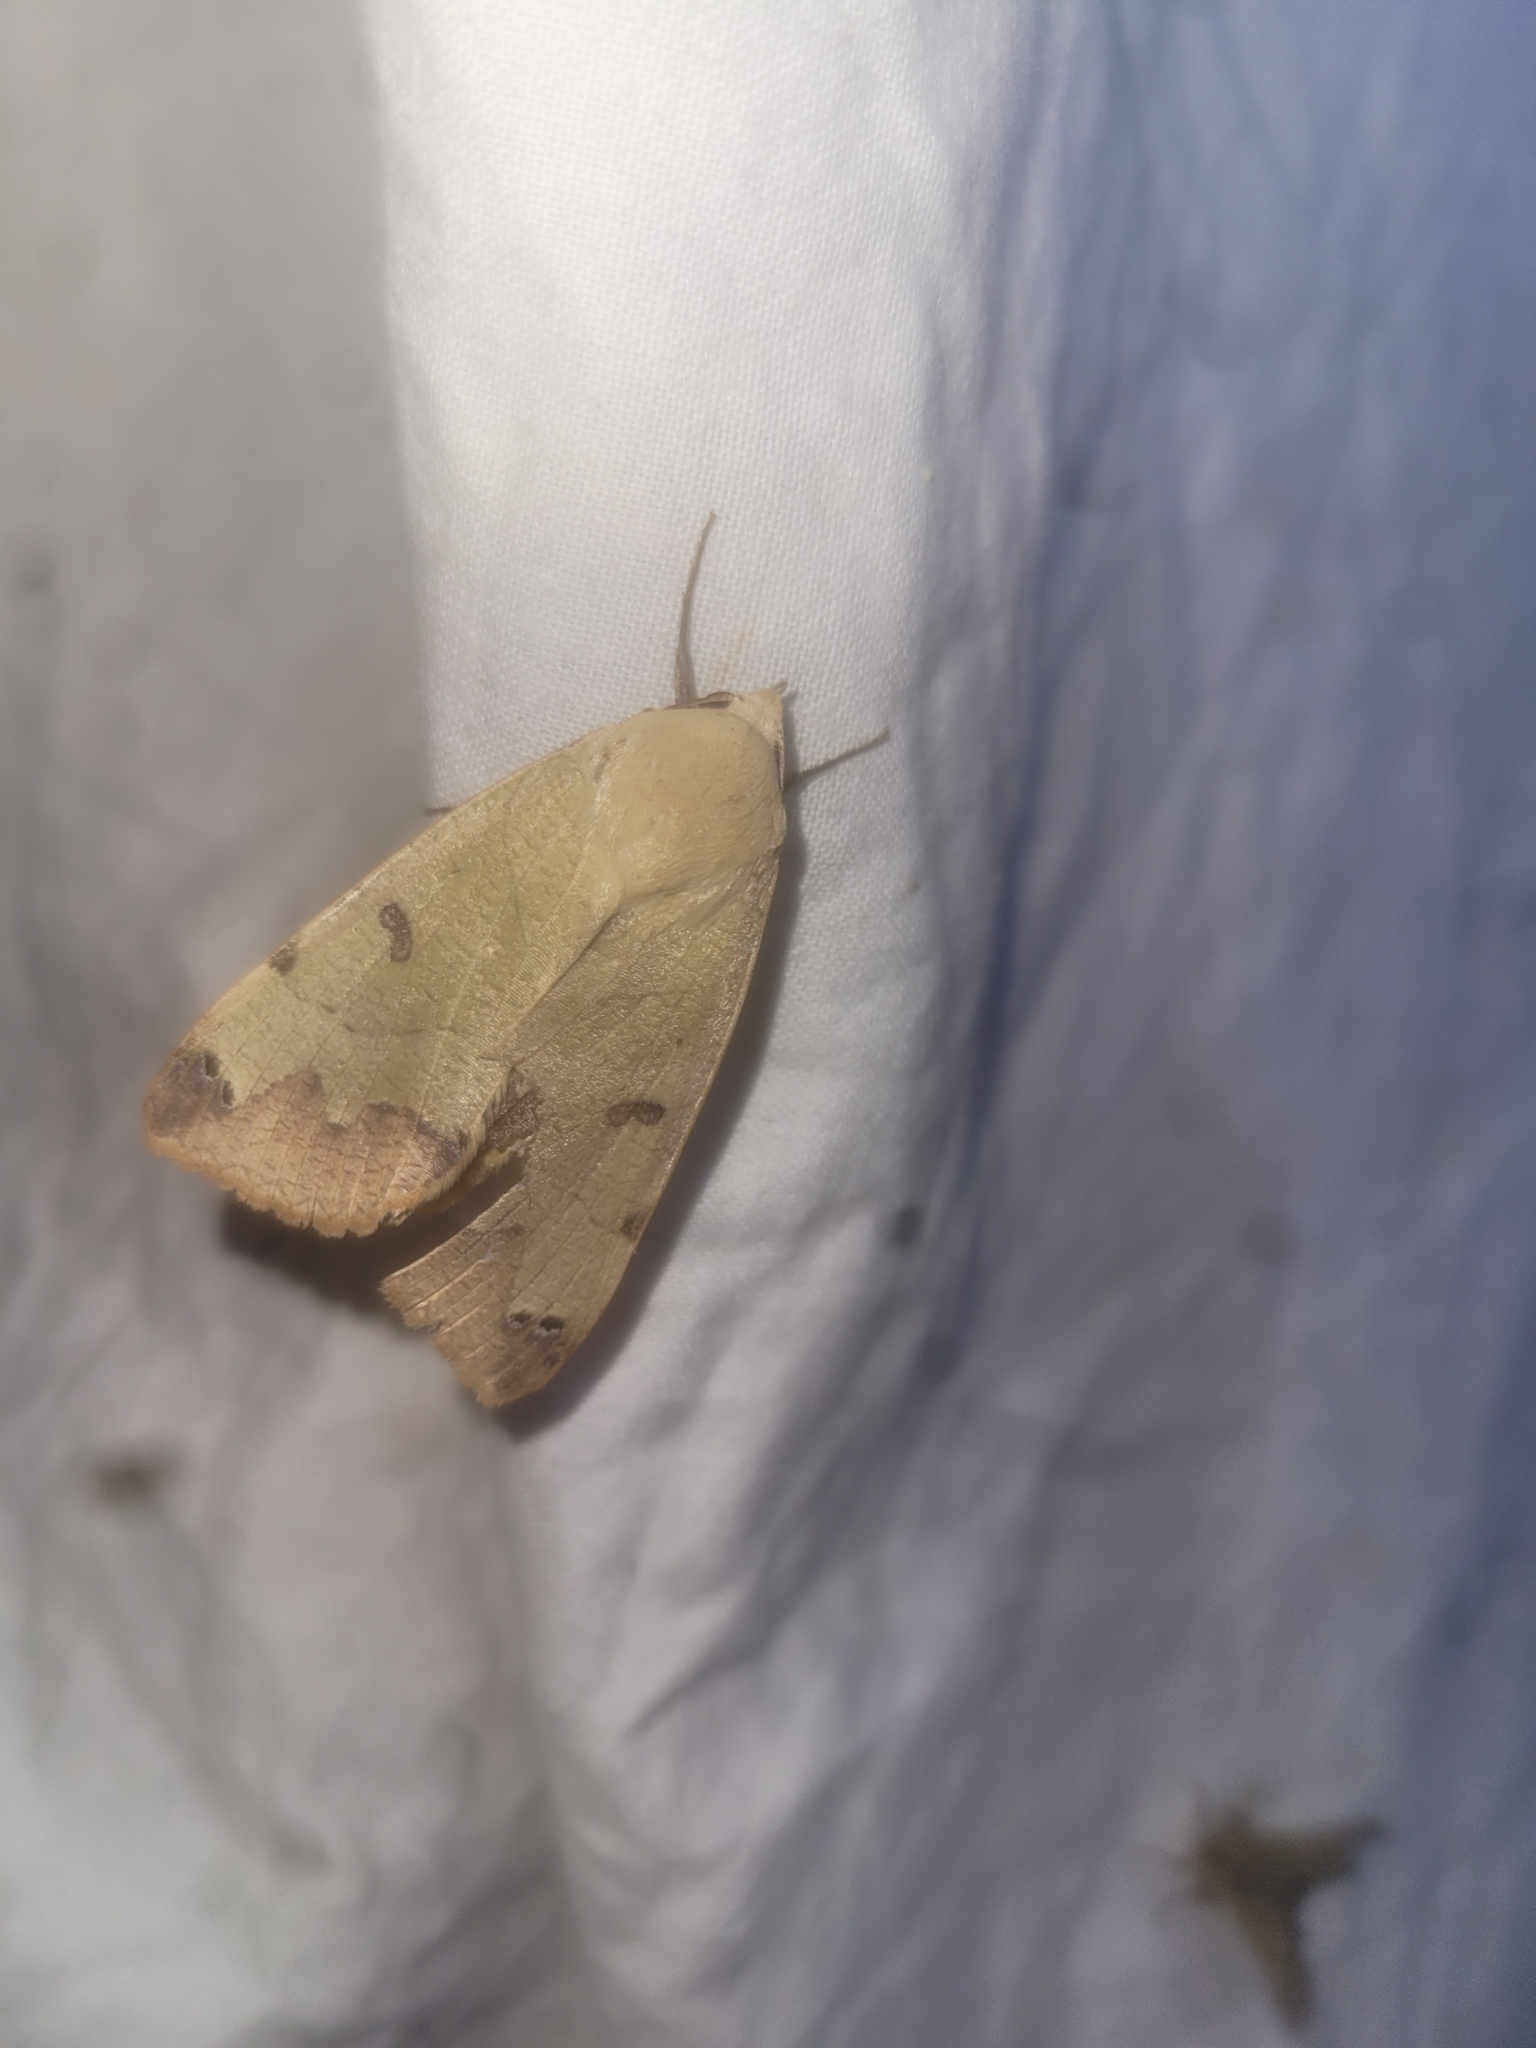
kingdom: Animalia
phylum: Arthropoda
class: Insecta
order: Lepidoptera
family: Erebidae
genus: Ophiusa
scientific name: Ophiusa tirhaca
